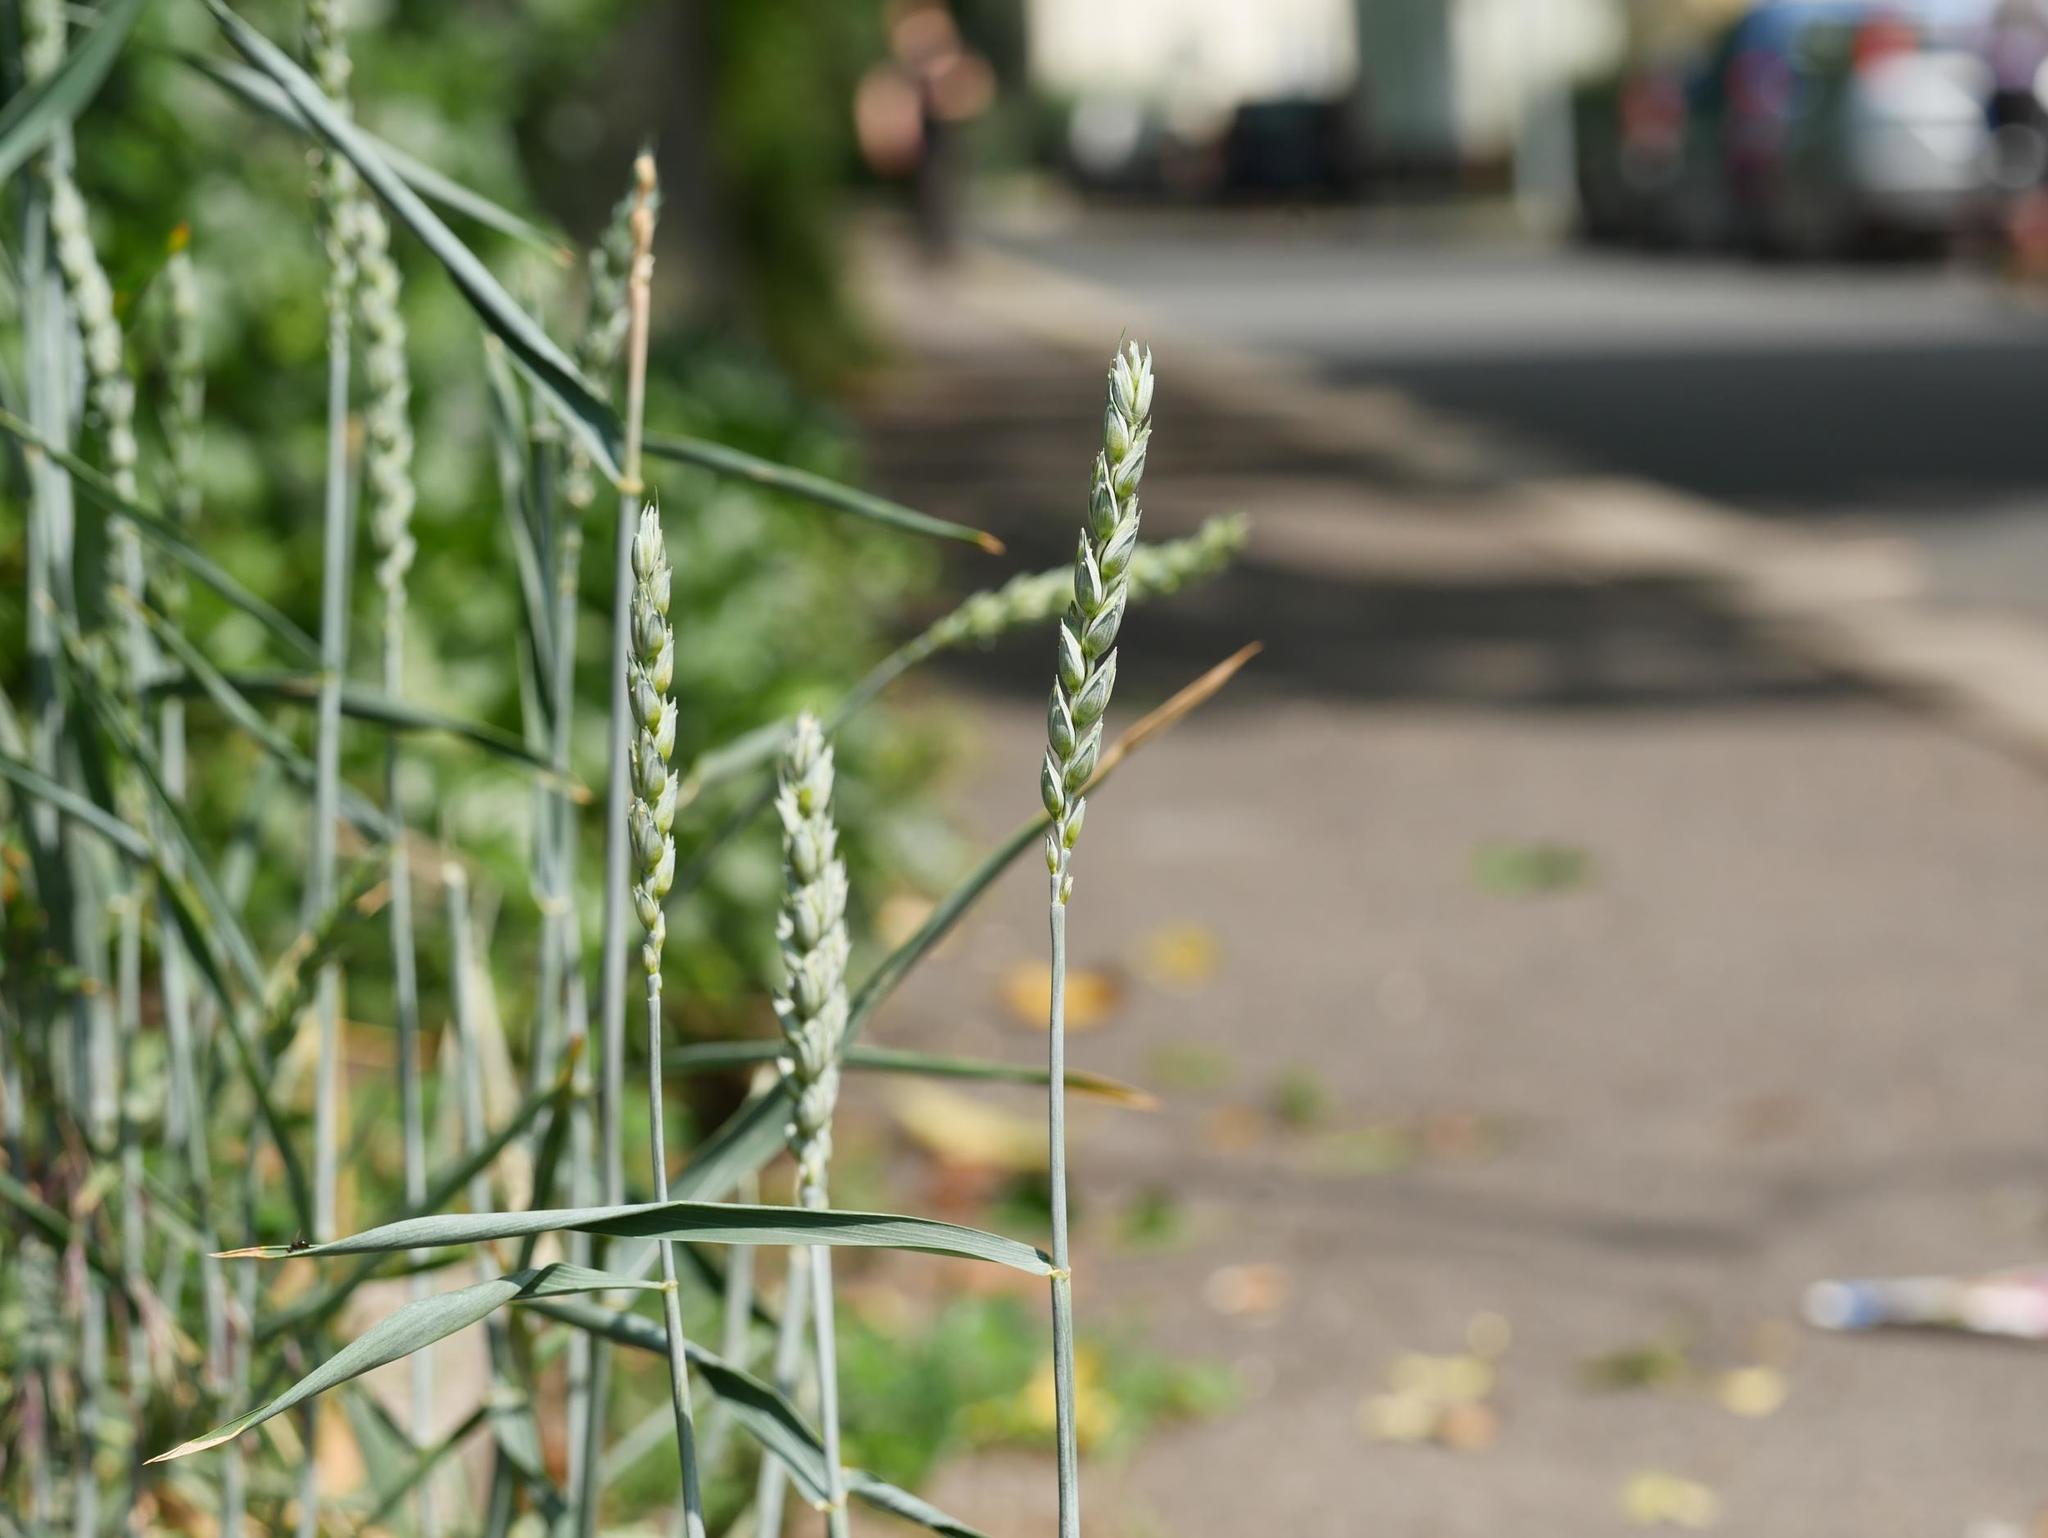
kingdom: Plantae
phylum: Tracheophyta
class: Liliopsida
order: Poales
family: Poaceae
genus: Triticum
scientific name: Triticum aestivum
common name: Common wheat
